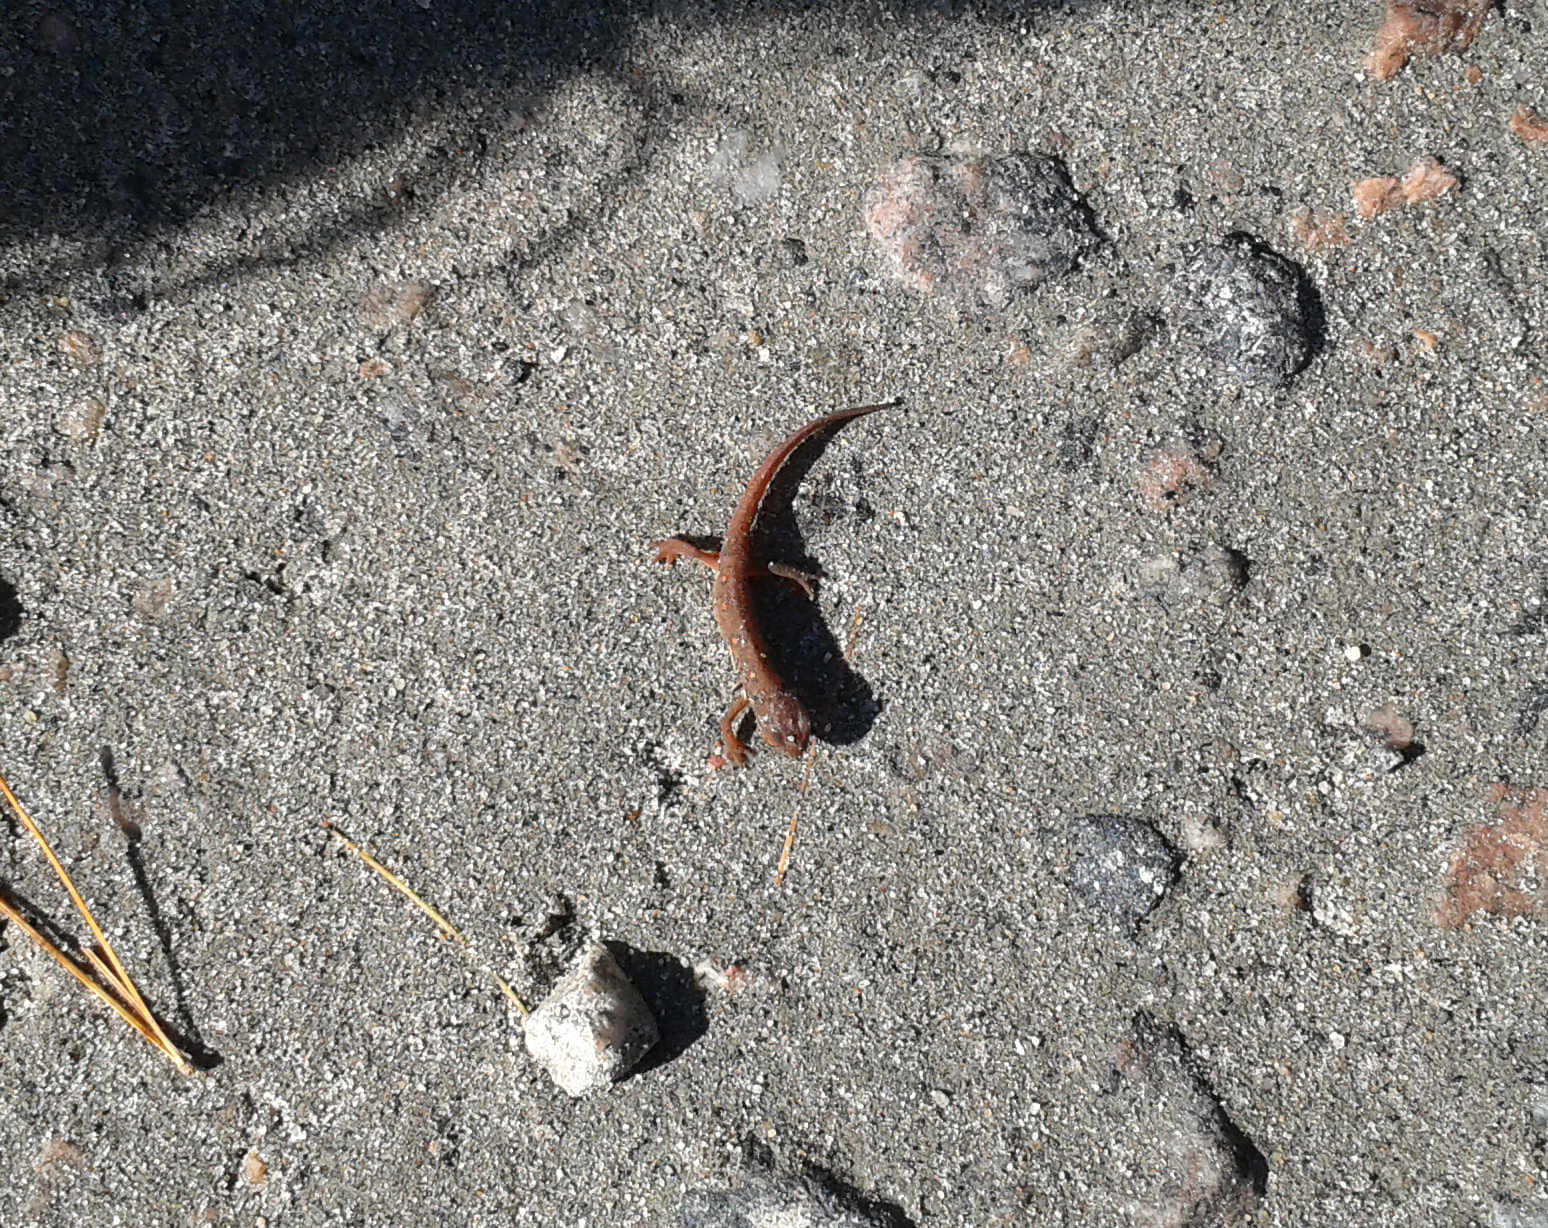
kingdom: Animalia
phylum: Chordata
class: Amphibia
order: Caudata
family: Salamandridae
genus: Notophthalmus
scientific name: Notophthalmus viridescens
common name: Eastern newt
